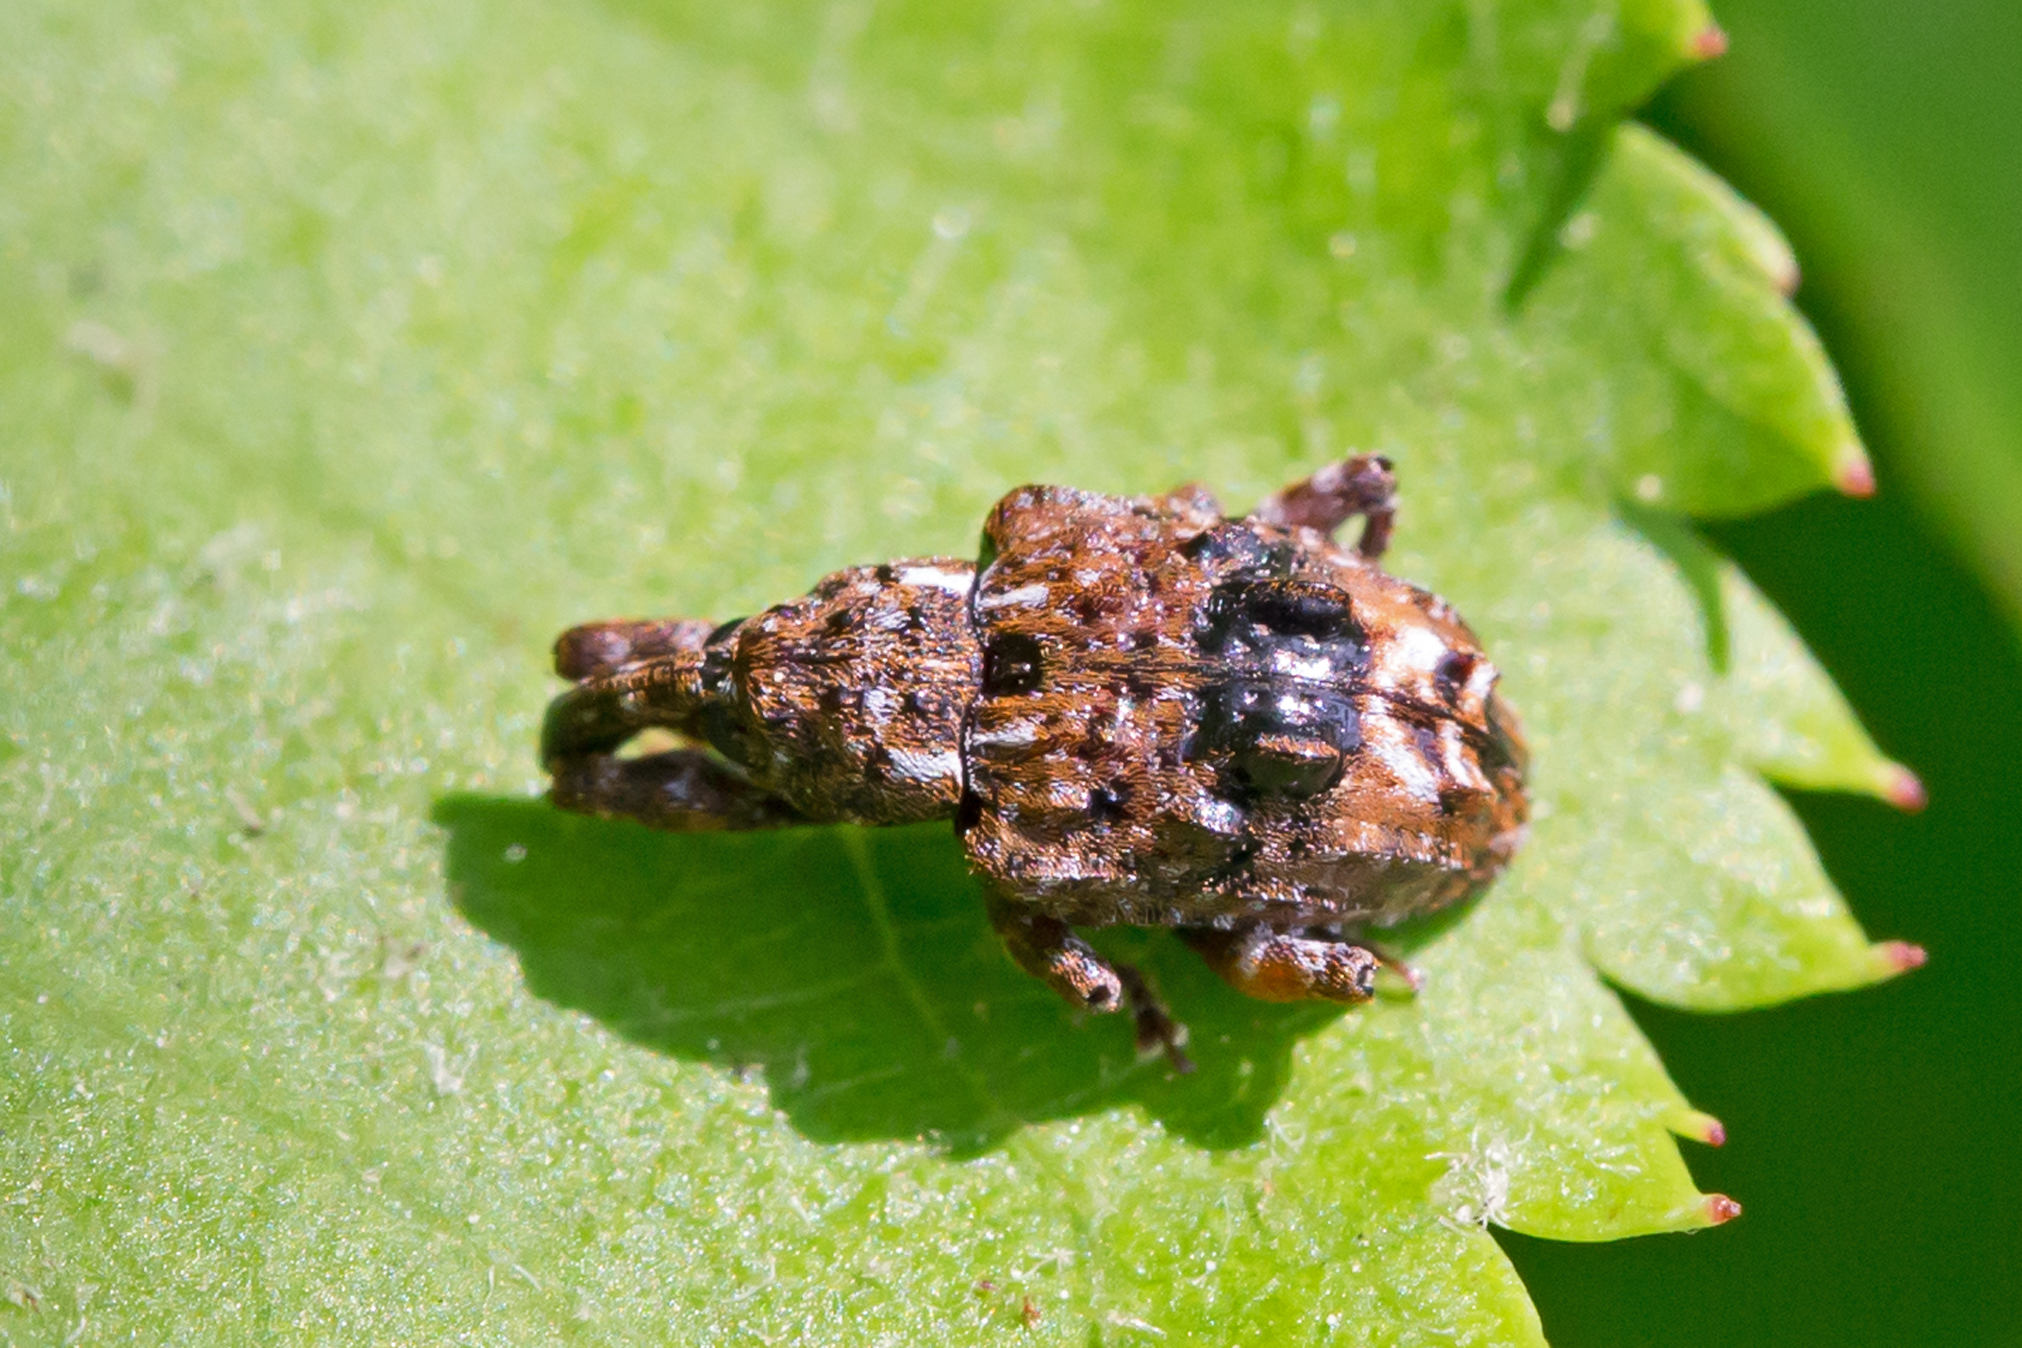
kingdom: Animalia
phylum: Arthropoda
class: Insecta
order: Coleoptera
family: Curculionidae
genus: Conotrachelus
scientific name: Conotrachelus nenuphar
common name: Plum curculio
